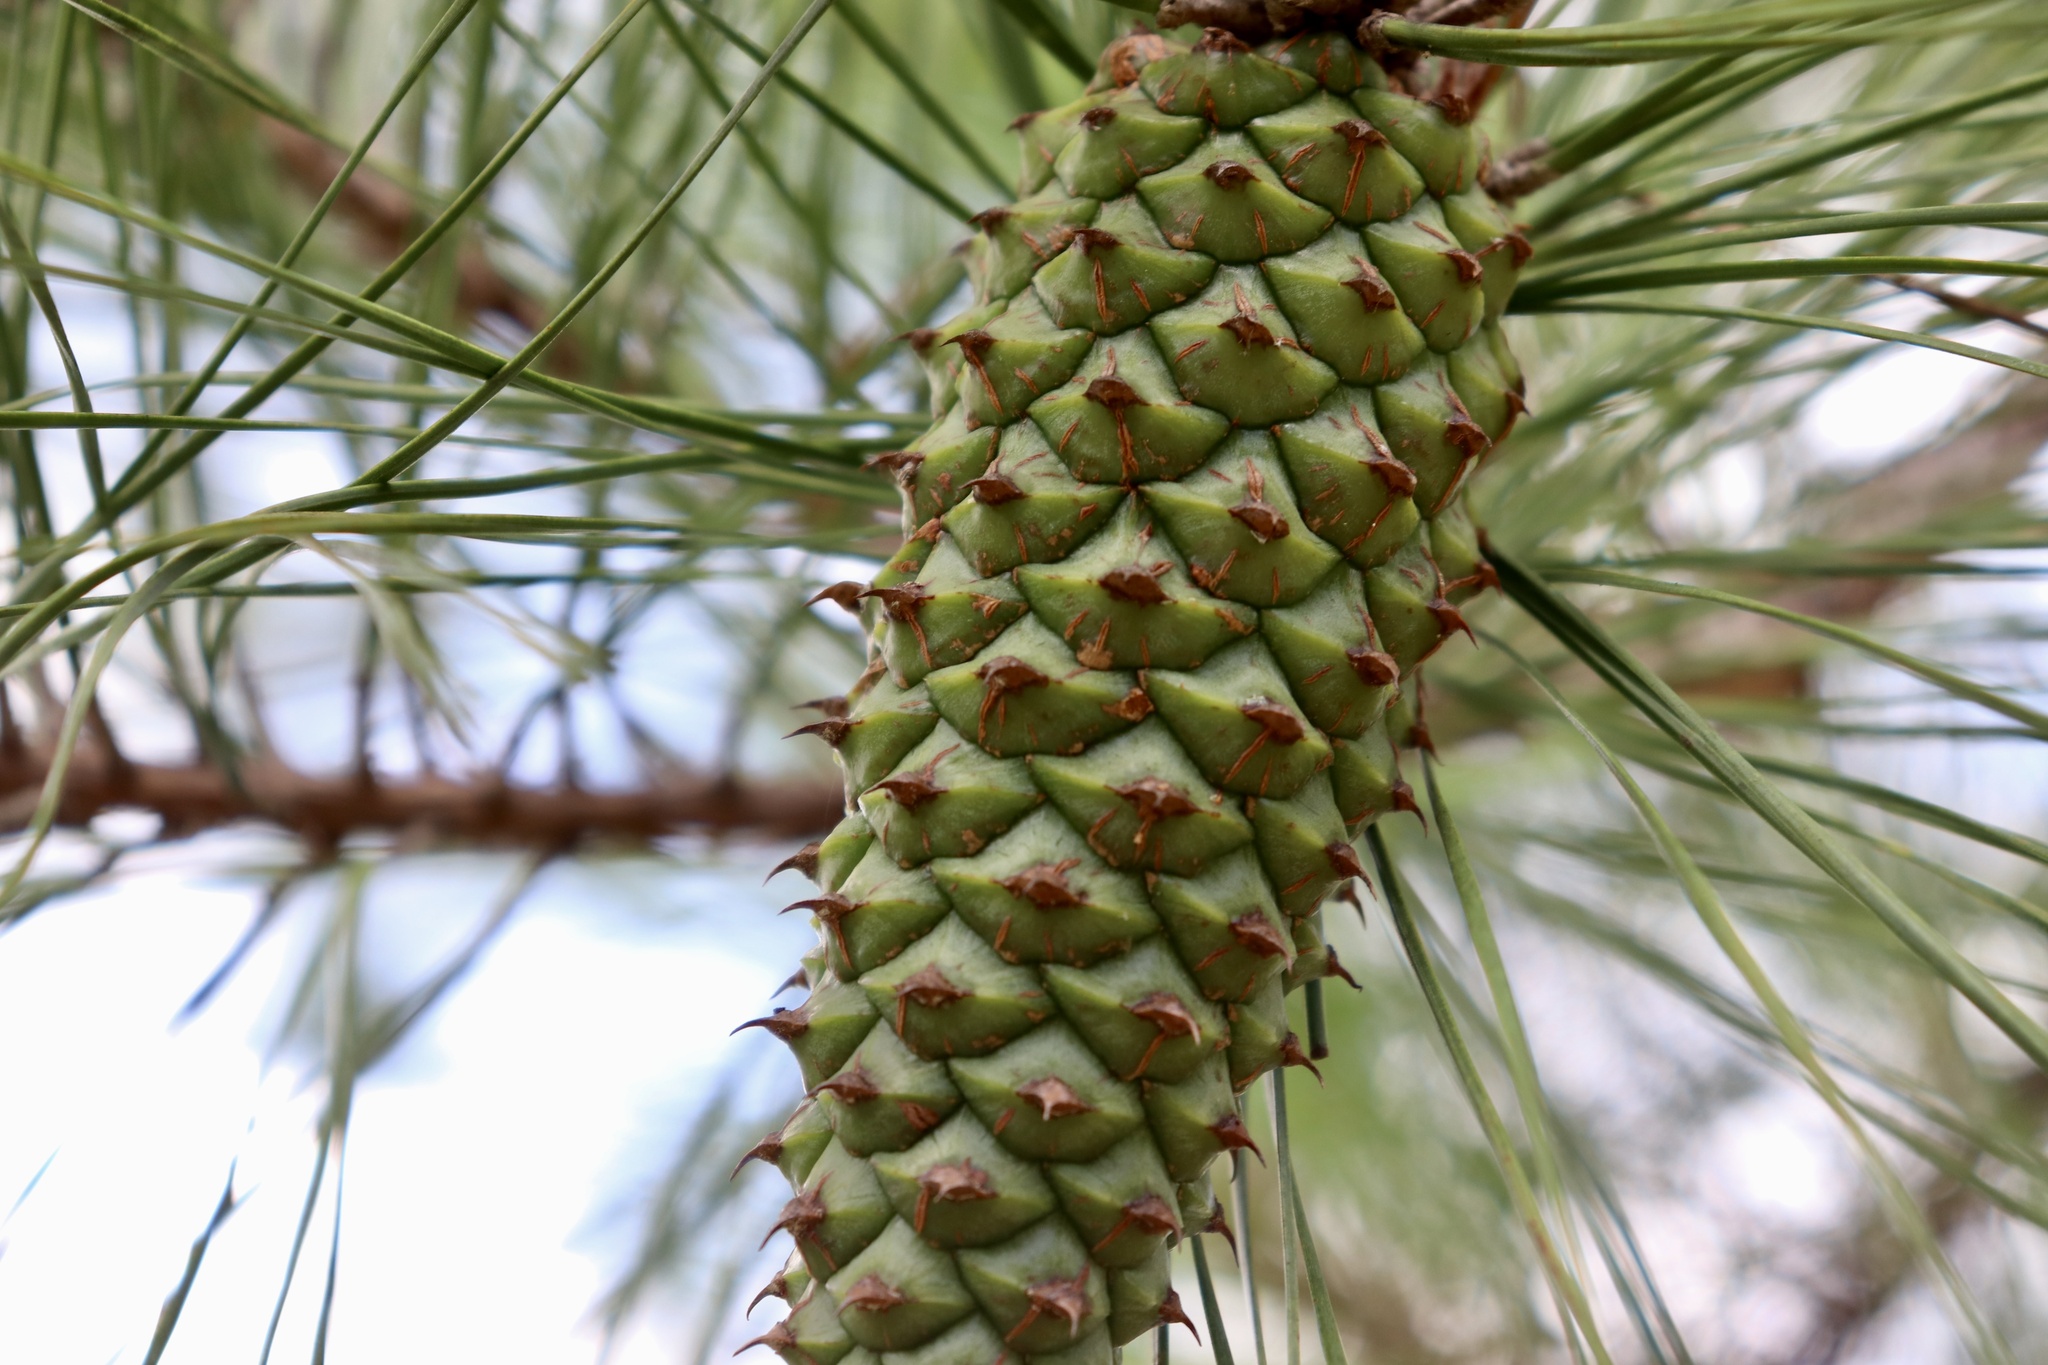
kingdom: Plantae
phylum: Tracheophyta
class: Pinopsida
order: Pinales
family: Pinaceae
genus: Pinus
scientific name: Pinus taeda
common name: Loblolly pine
